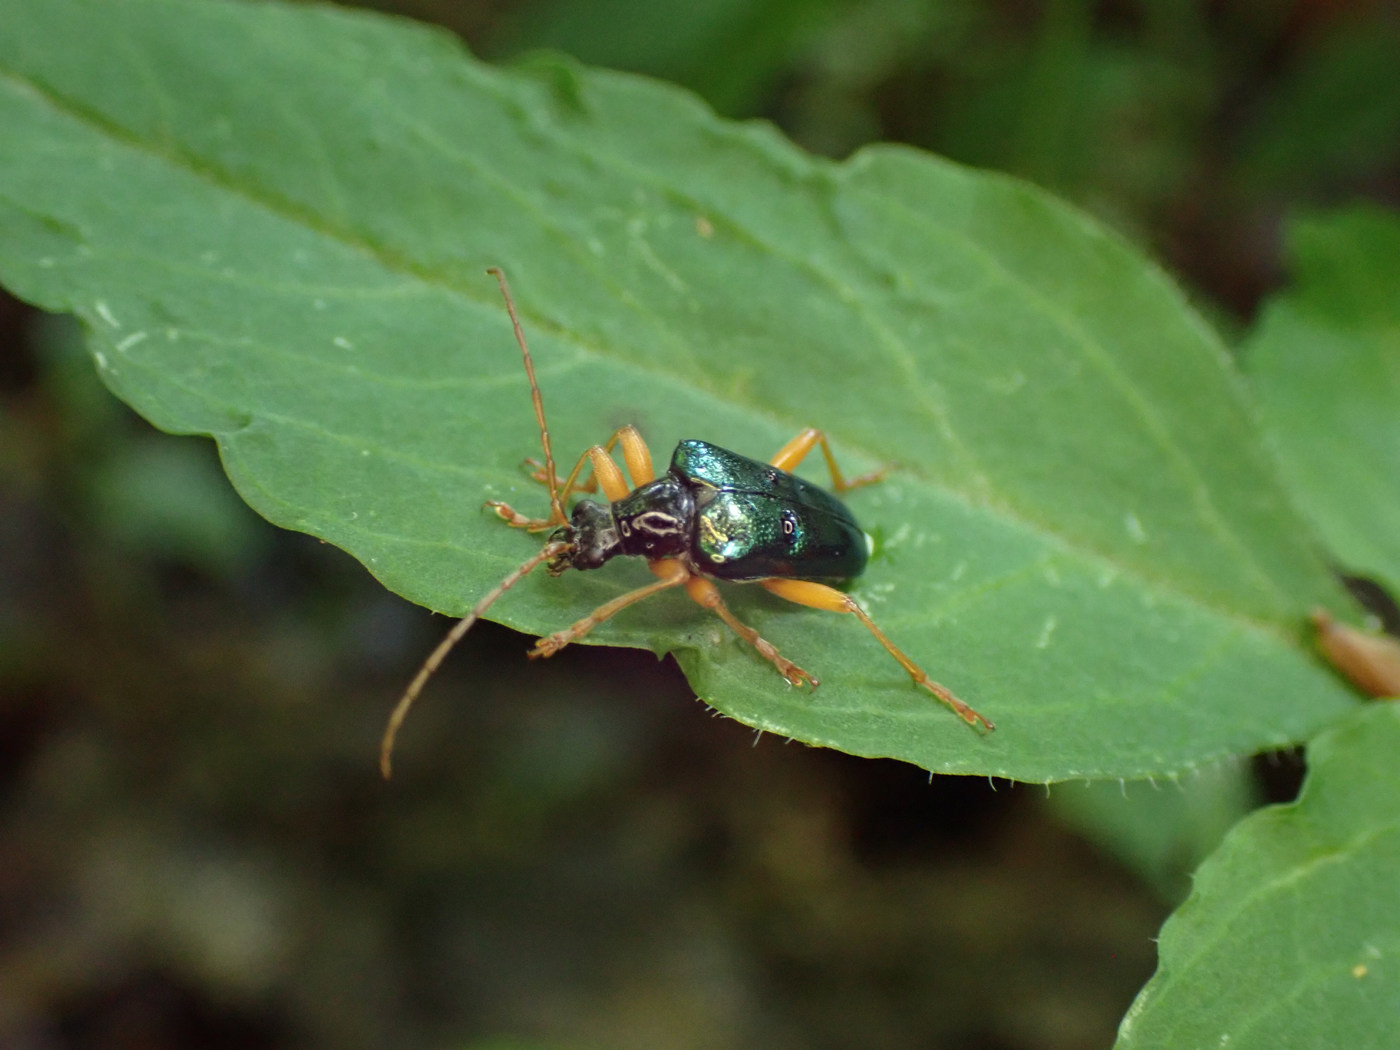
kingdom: Animalia
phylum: Arthropoda
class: Insecta
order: Coleoptera
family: Cerambycidae
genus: Gaurotes
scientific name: Gaurotes cyanipennis
